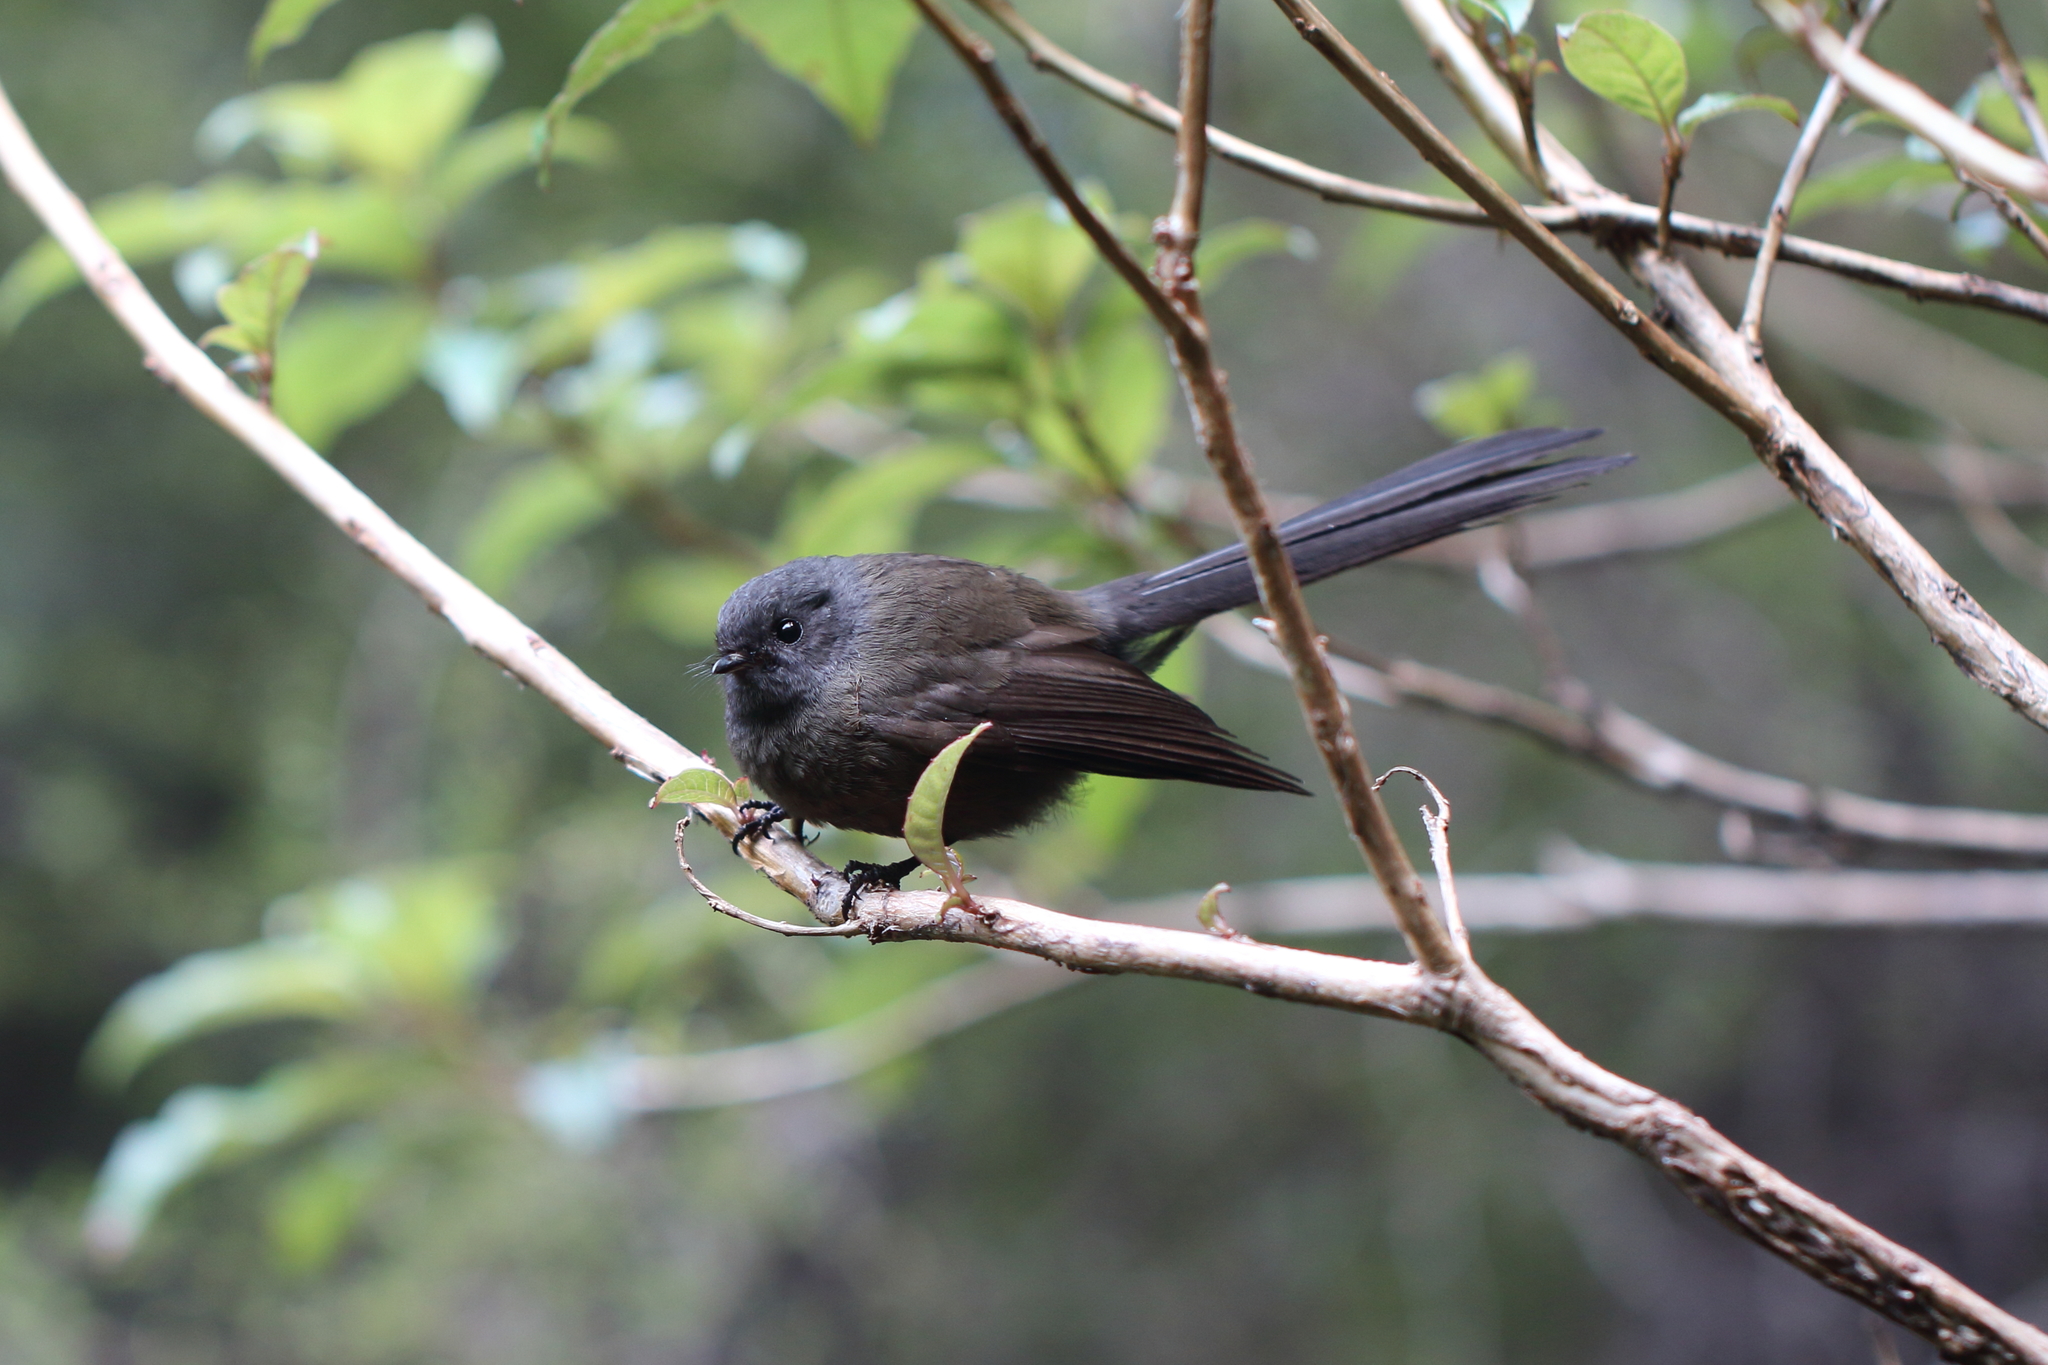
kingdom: Animalia
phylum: Chordata
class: Aves
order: Passeriformes
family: Rhipiduridae
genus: Rhipidura
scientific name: Rhipidura fuliginosa
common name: New zealand fantail
